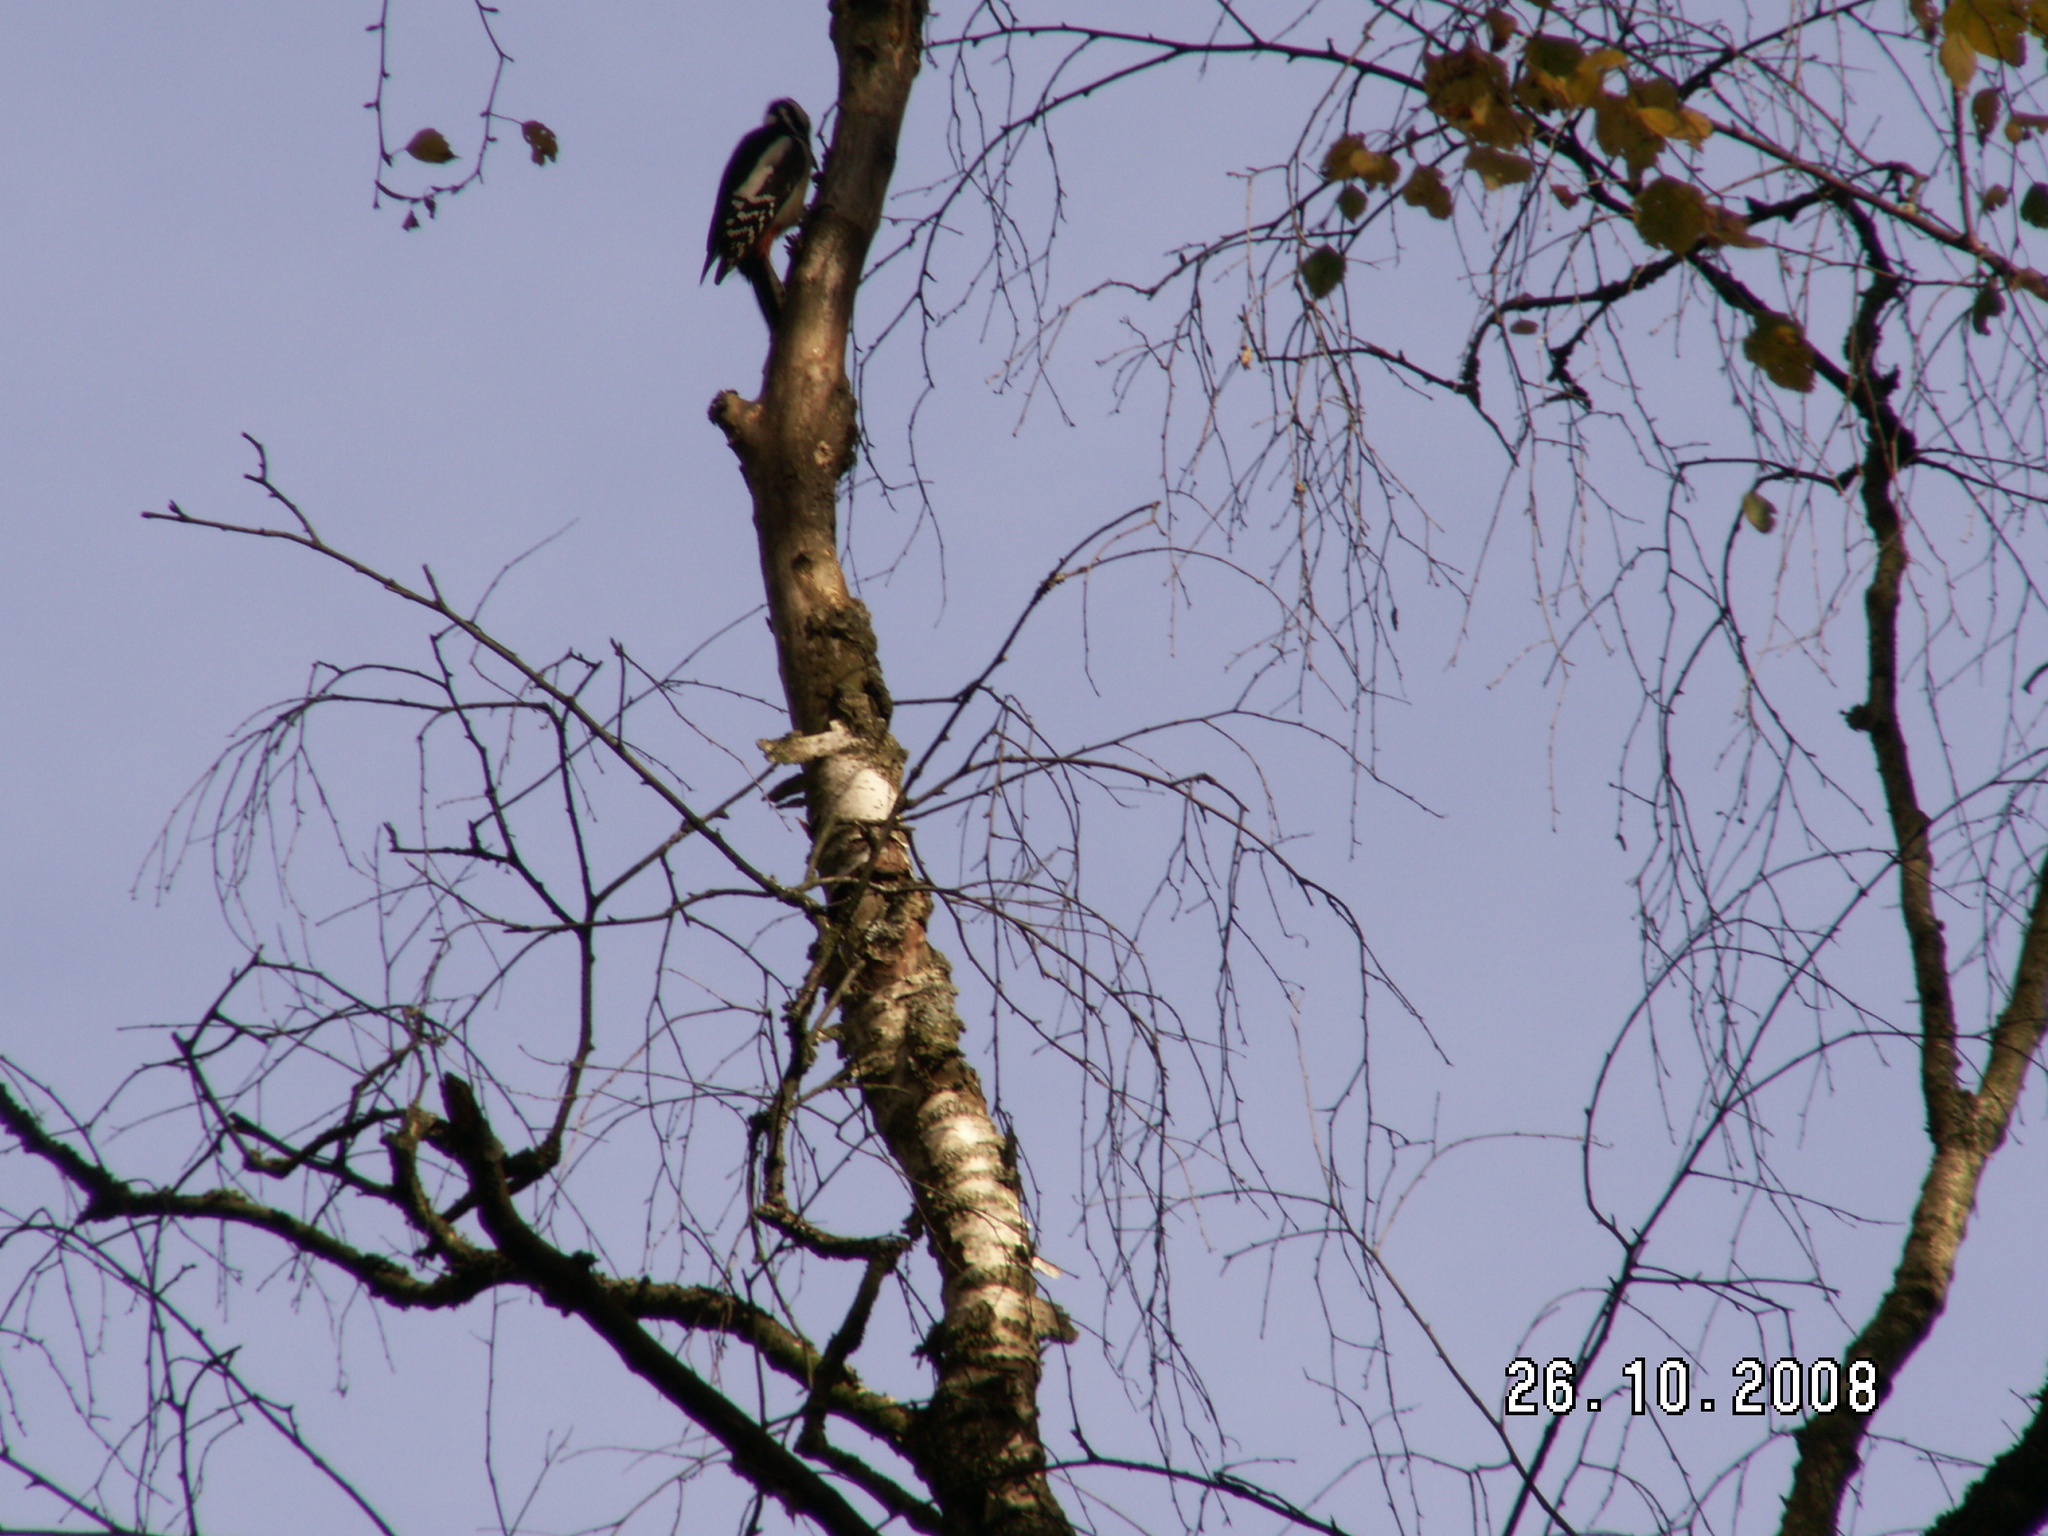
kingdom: Animalia
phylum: Chordata
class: Aves
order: Piciformes
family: Picidae
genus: Dendrocopos
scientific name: Dendrocopos major
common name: Great spotted woodpecker
